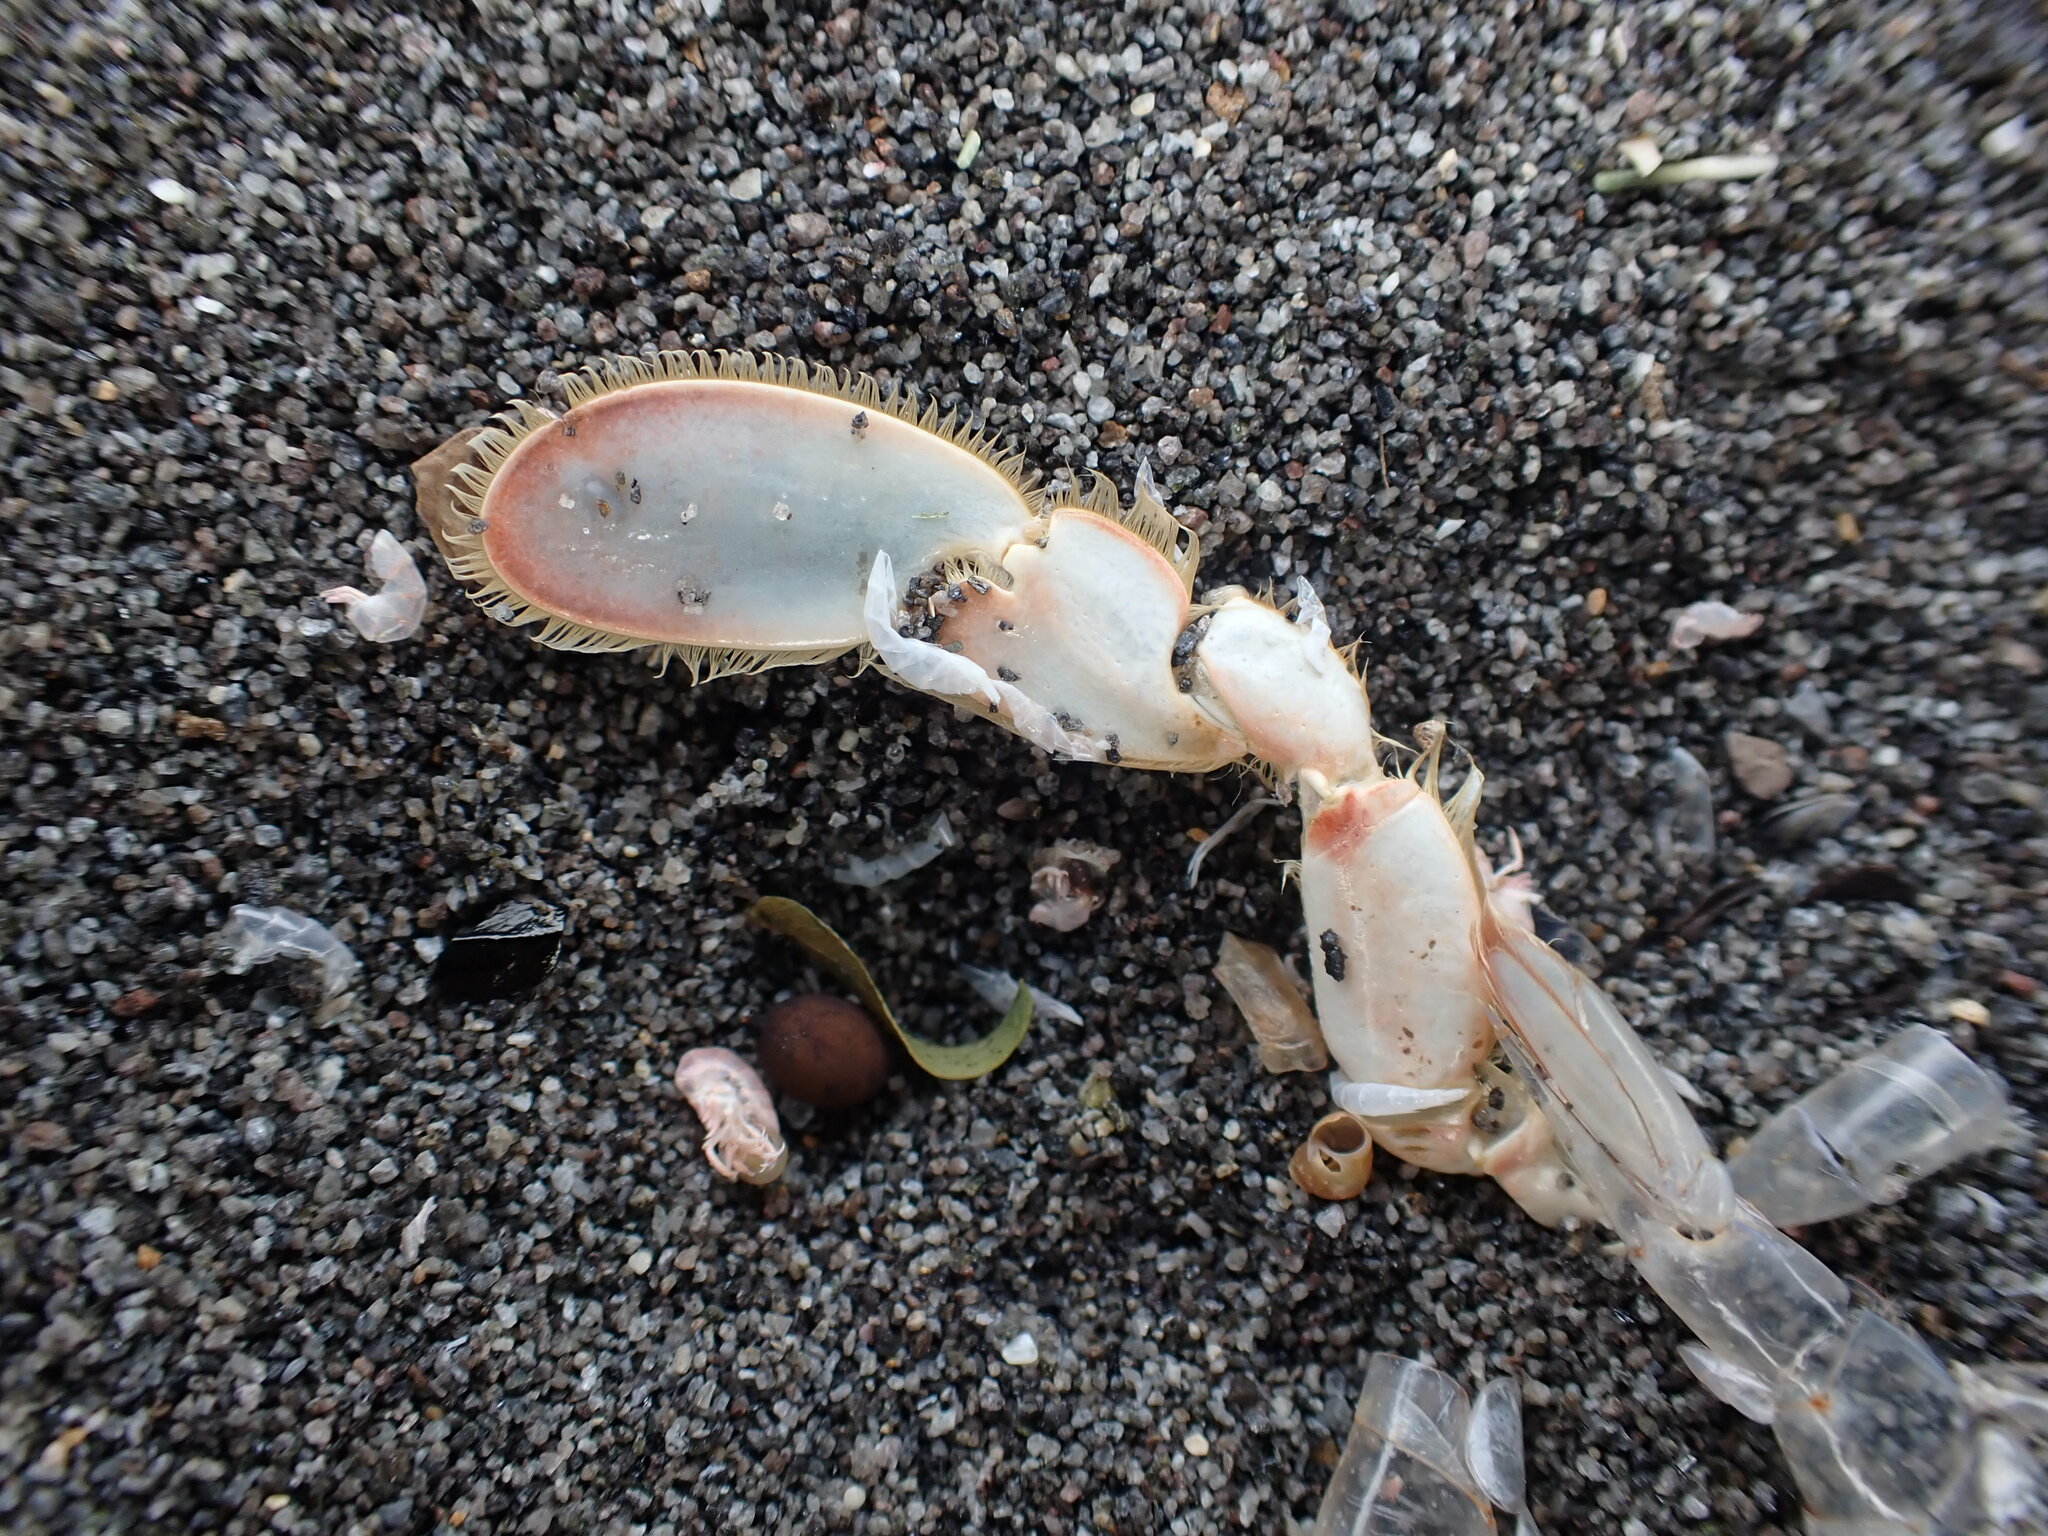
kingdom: Animalia
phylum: Arthropoda
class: Malacostraca
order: Decapoda
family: Ovalipidae
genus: Ovalipes
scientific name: Ovalipes catharus
